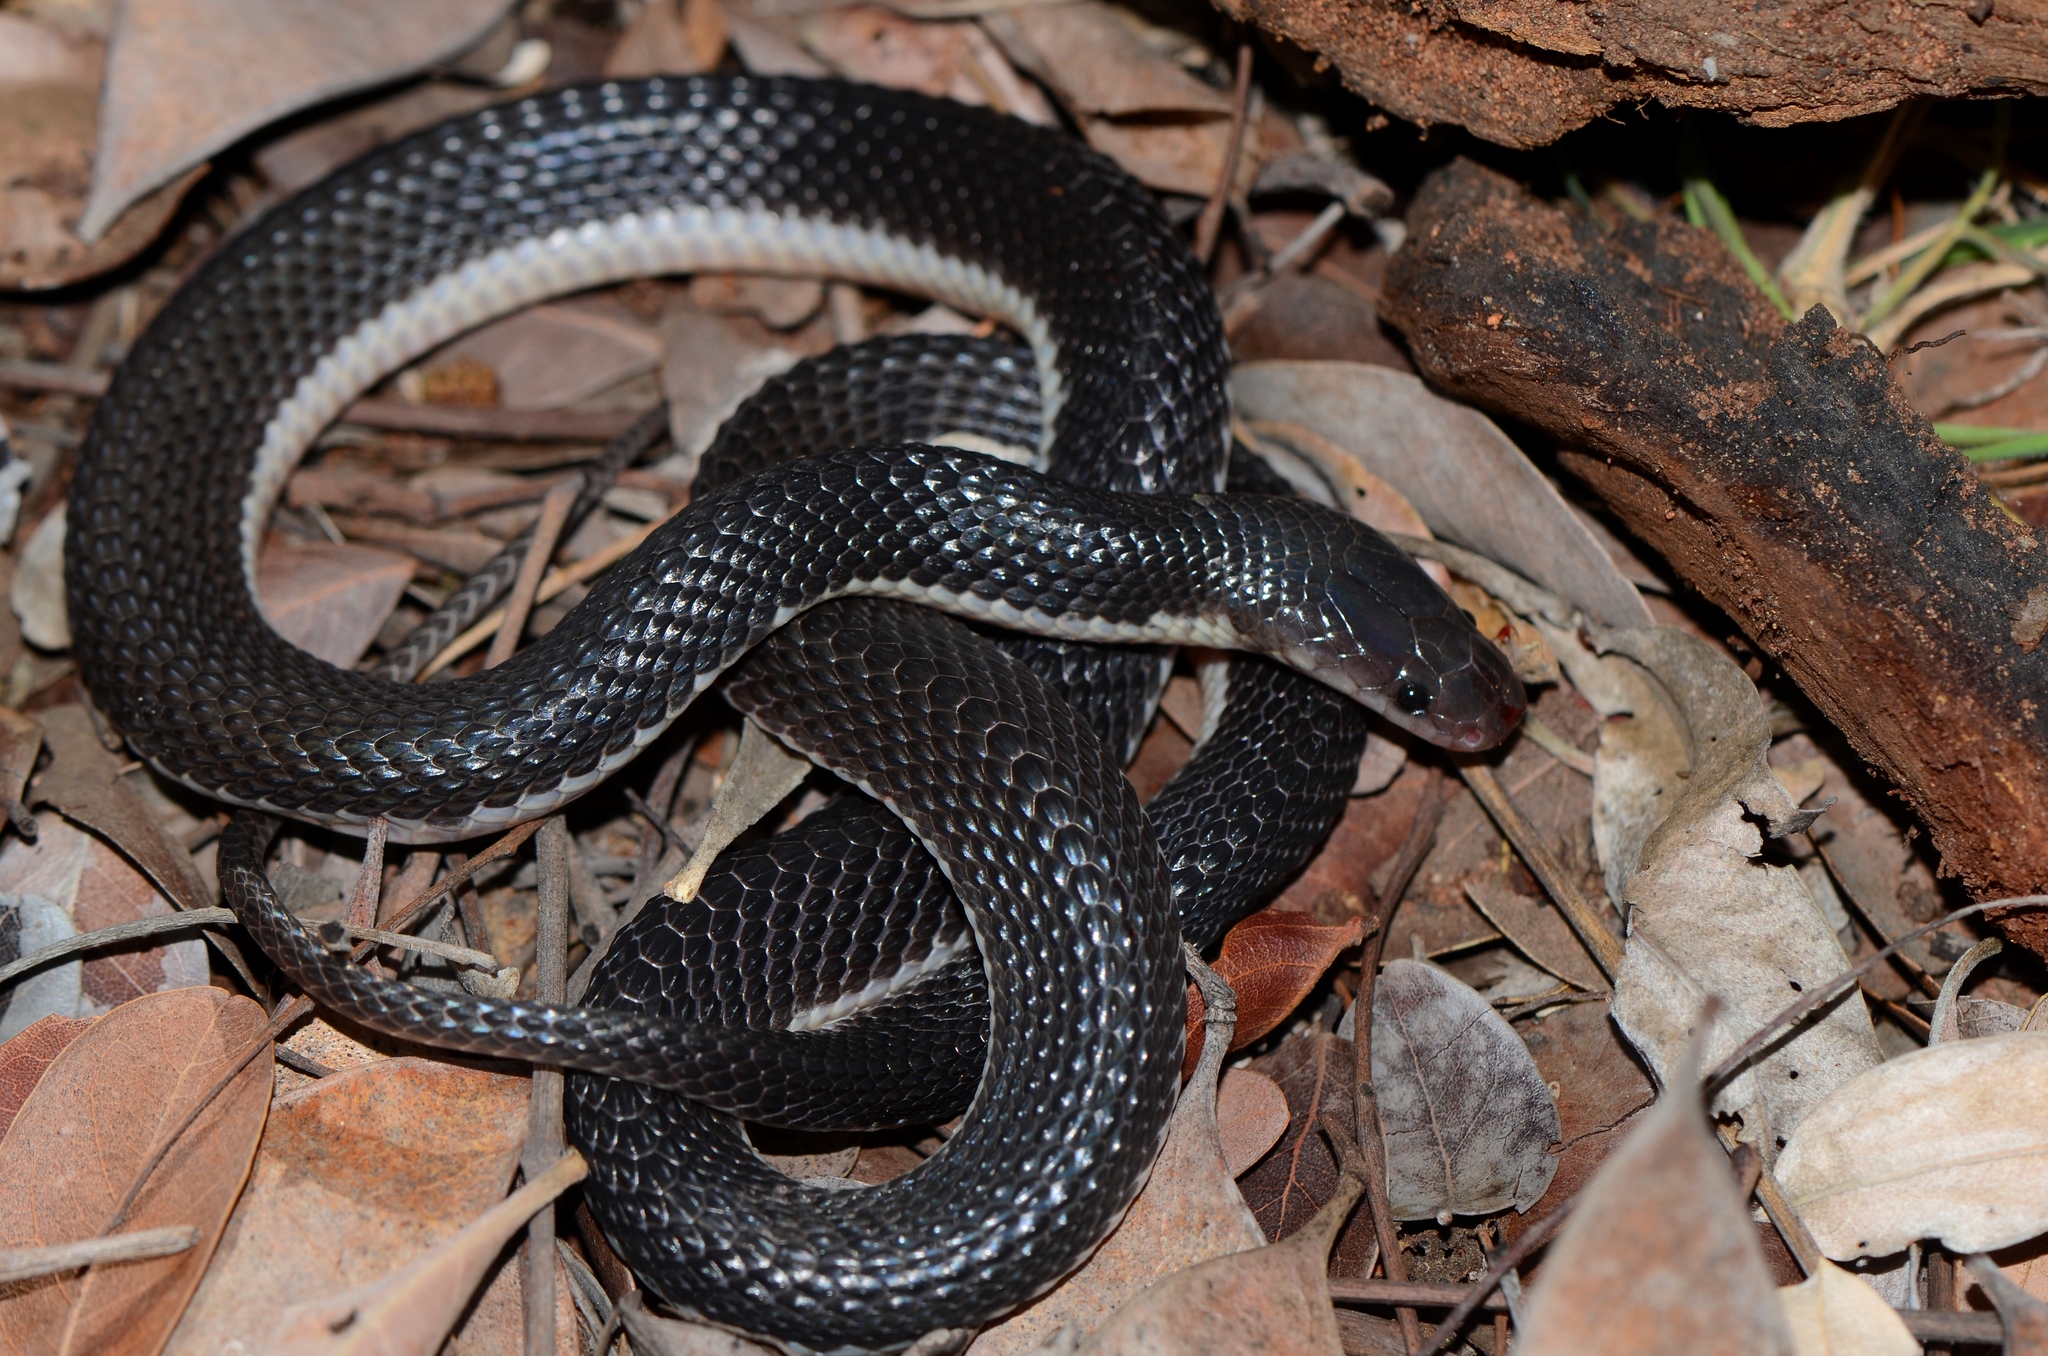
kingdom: Animalia
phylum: Chordata
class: Squamata
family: Lamprophiidae
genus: Gracililima
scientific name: Gracililima nyassae
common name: Black file snake
